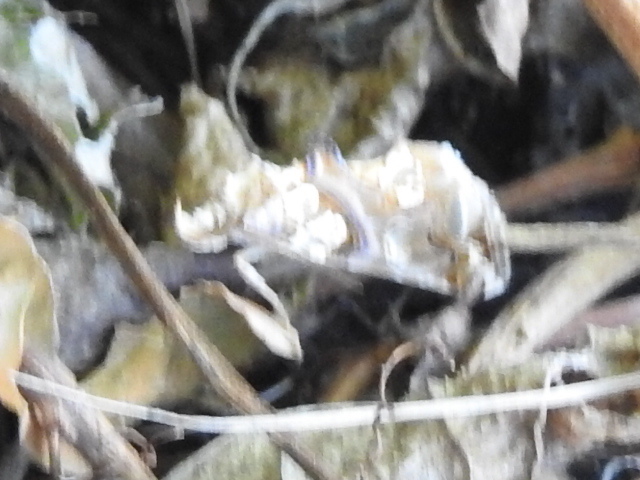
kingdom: Animalia
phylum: Arthropoda
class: Insecta
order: Lepidoptera
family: Erebidae
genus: Plusiodonta
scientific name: Plusiodonta compressipalpis
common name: Moonseed moth
